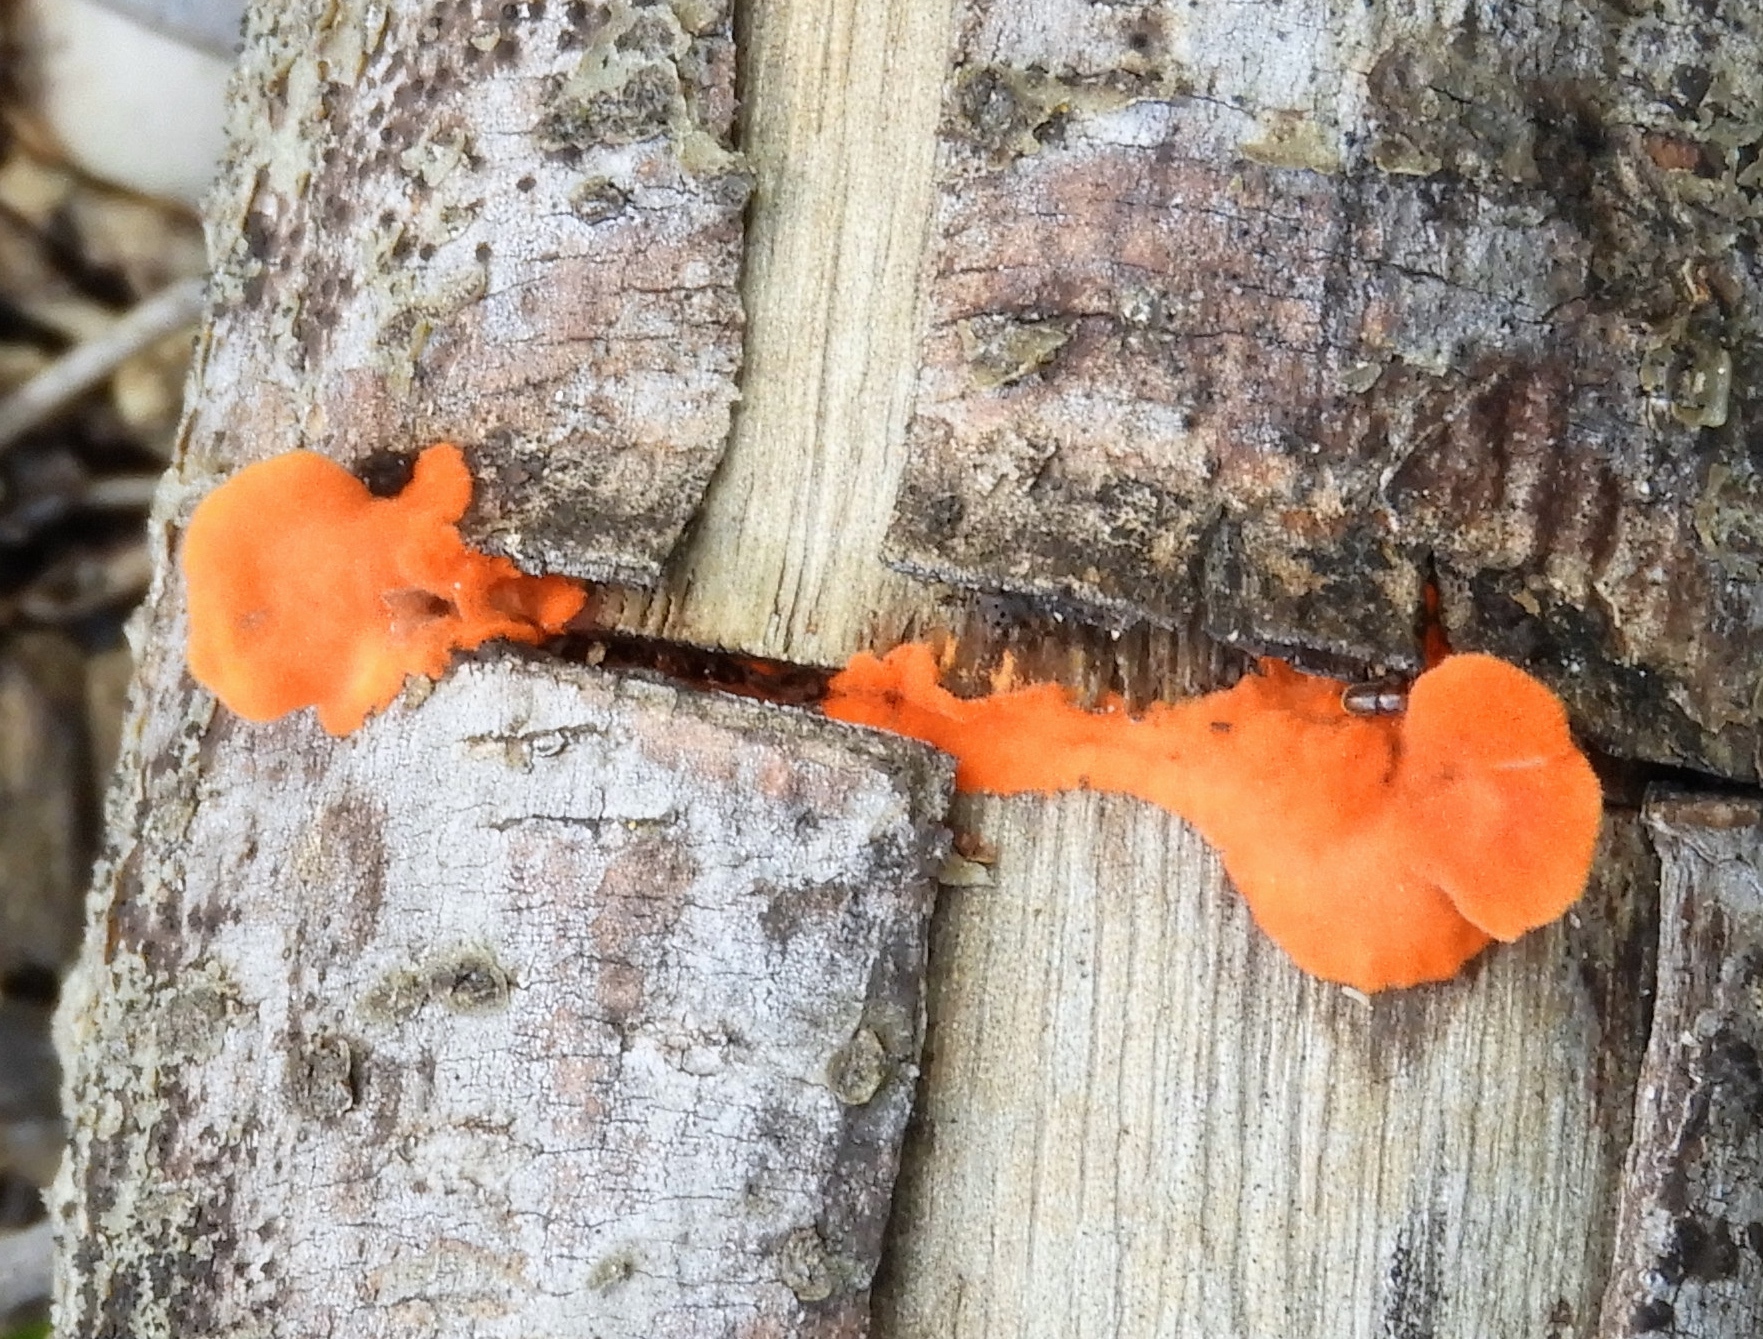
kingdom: Fungi
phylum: Basidiomycota
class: Agaricomycetes
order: Polyporales
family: Polyporaceae
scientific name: Polyporaceae
